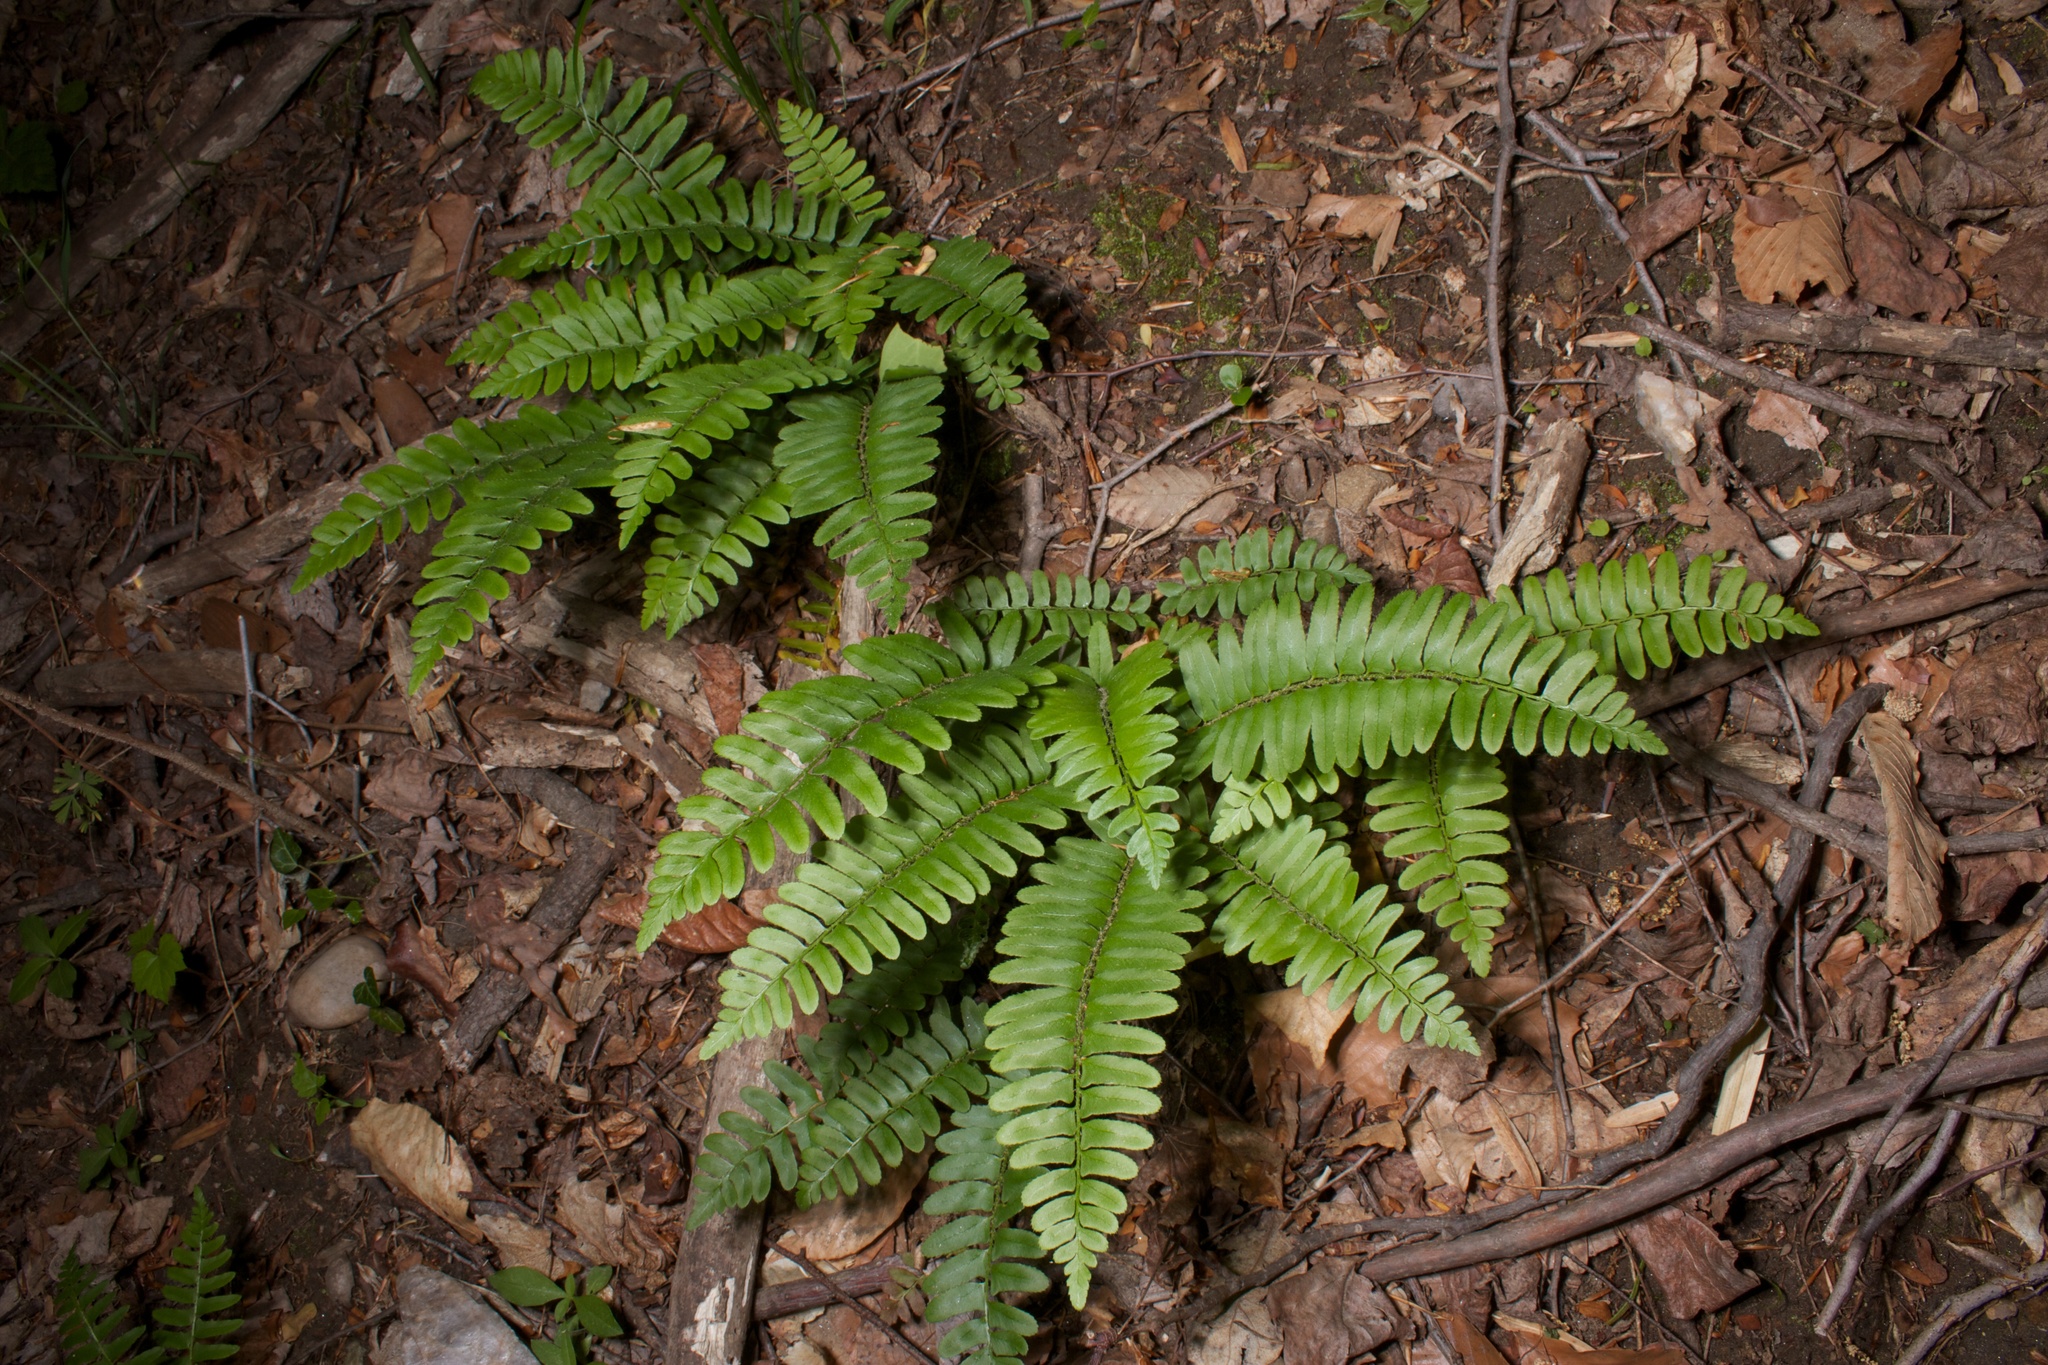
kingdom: Plantae
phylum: Tracheophyta
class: Polypodiopsida
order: Polypodiales
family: Dryopteridaceae
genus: Polystichum
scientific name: Polystichum acrostichoides
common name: Christmas fern
